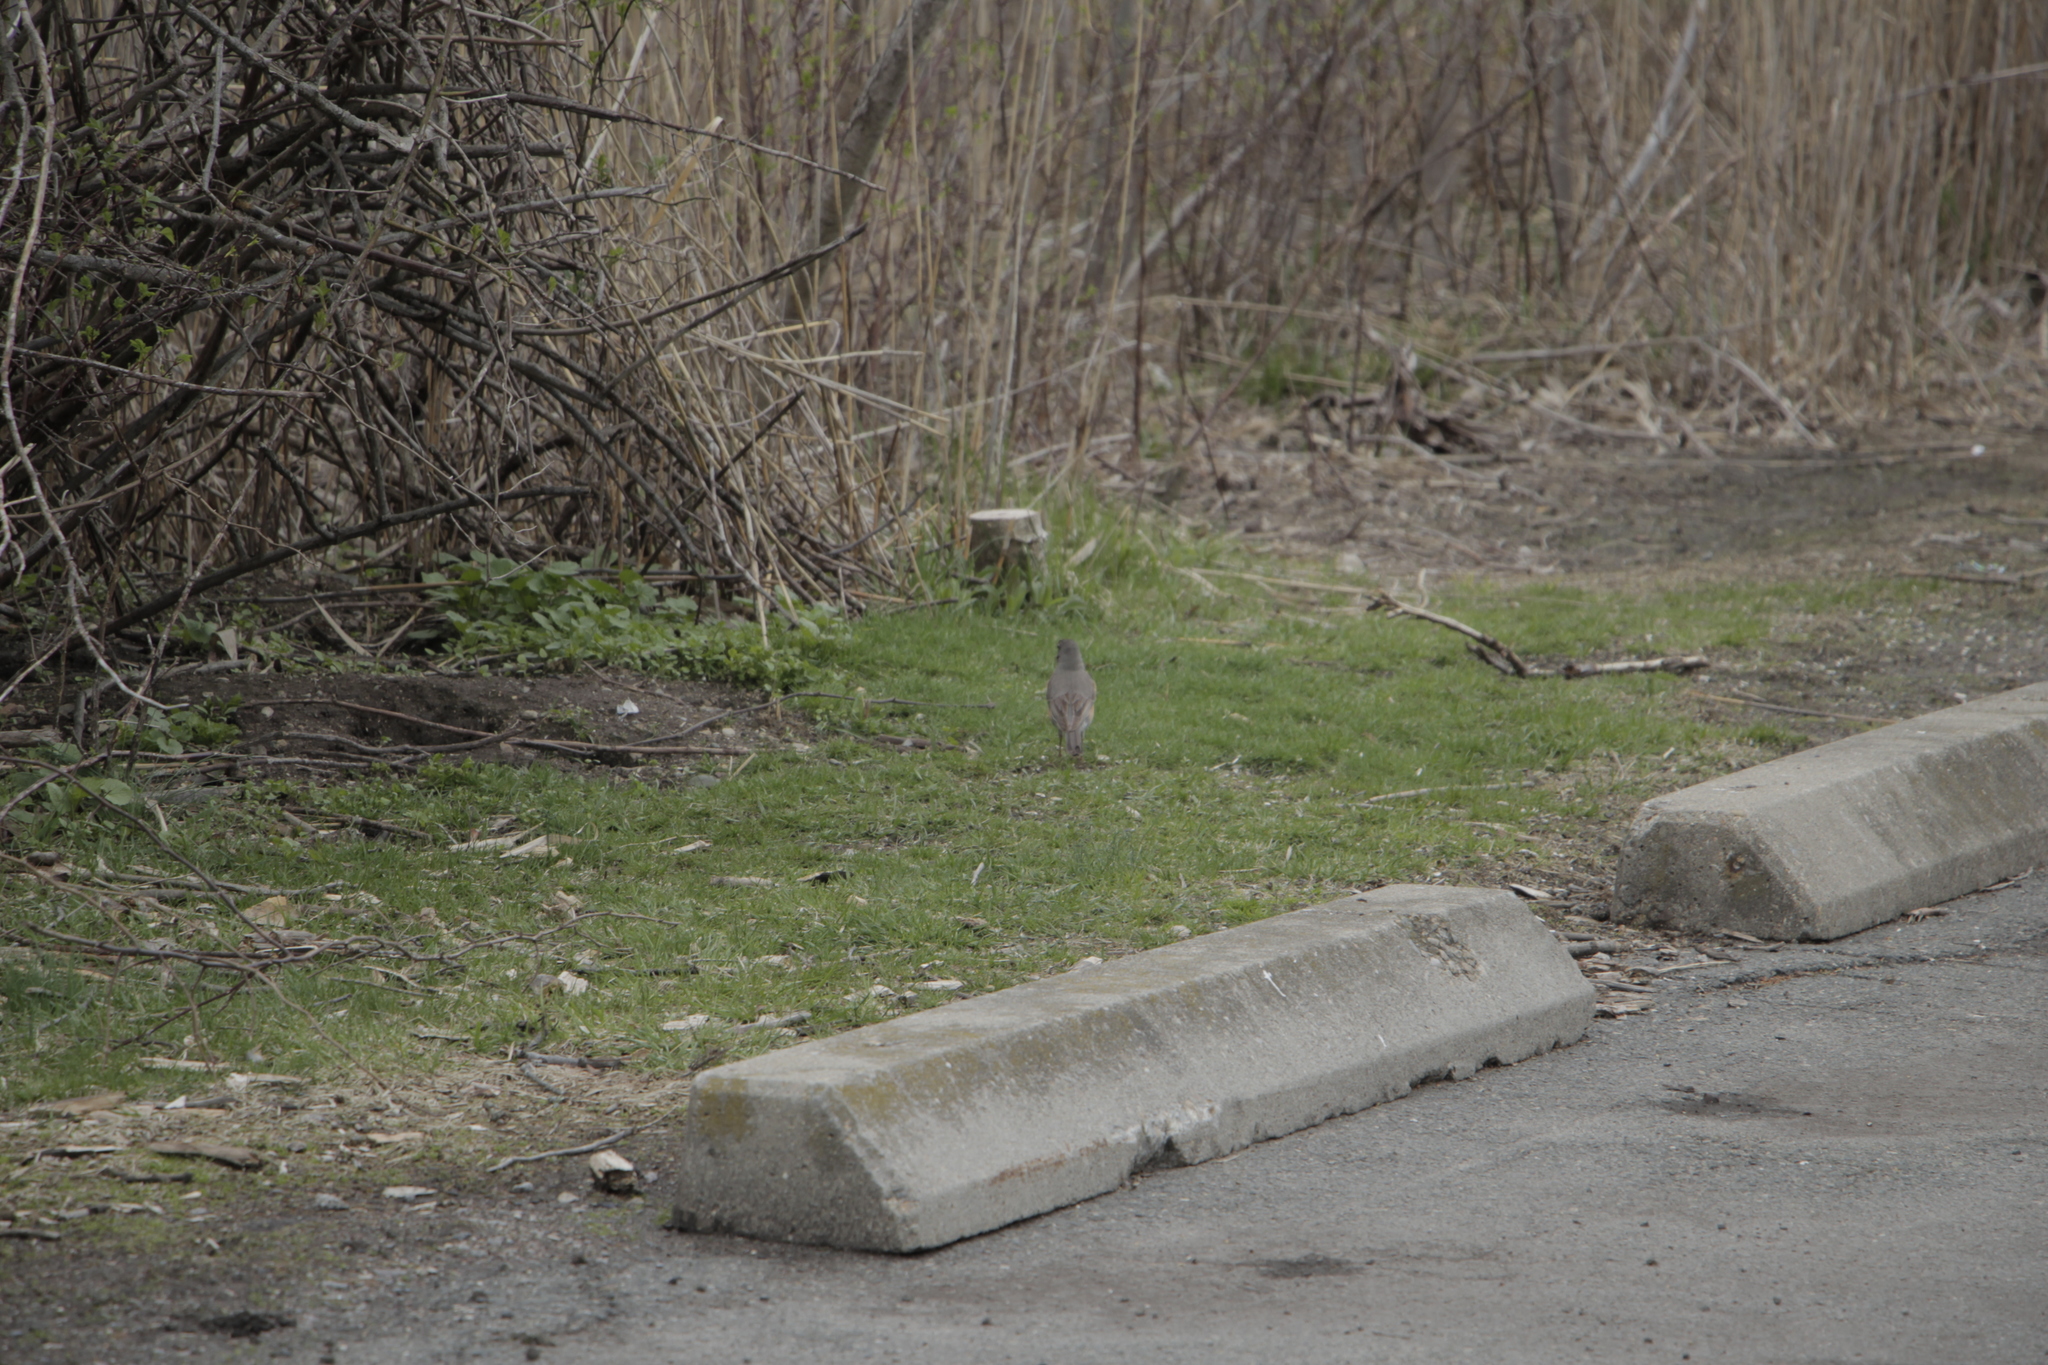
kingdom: Animalia
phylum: Chordata
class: Aves
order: Passeriformes
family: Turdidae
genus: Turdus
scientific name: Turdus migratorius
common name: American robin
